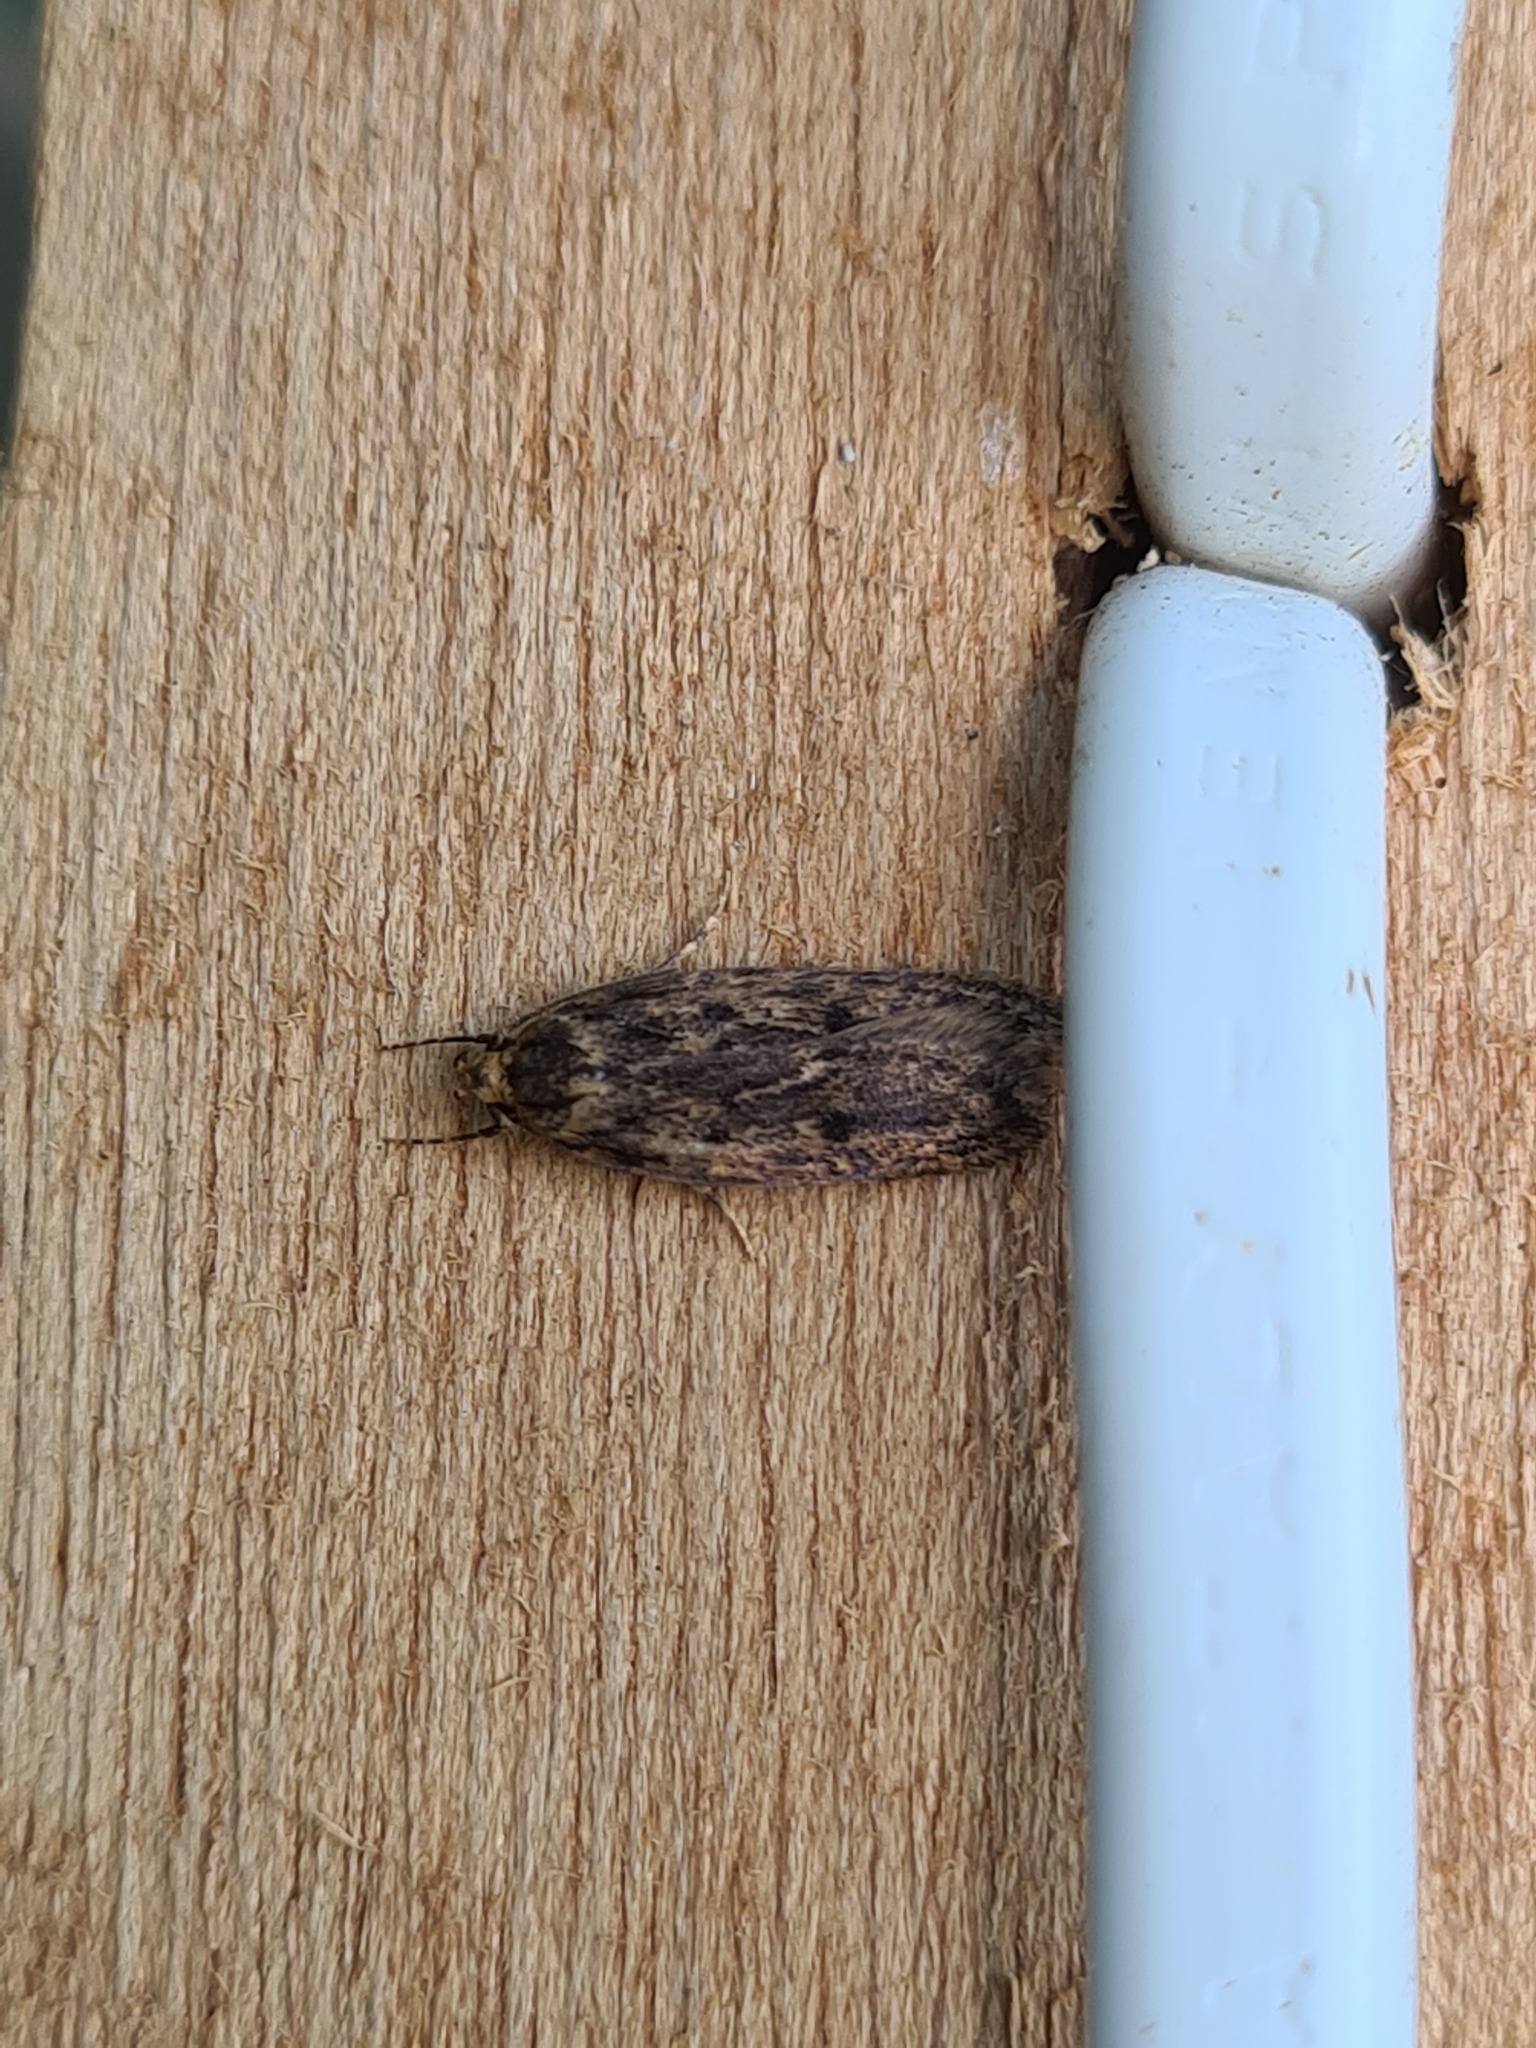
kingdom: Animalia
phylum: Arthropoda
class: Insecta
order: Lepidoptera
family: Oecophoridae
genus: Hofmannophila
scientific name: Hofmannophila pseudospretella
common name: Brown house moth
